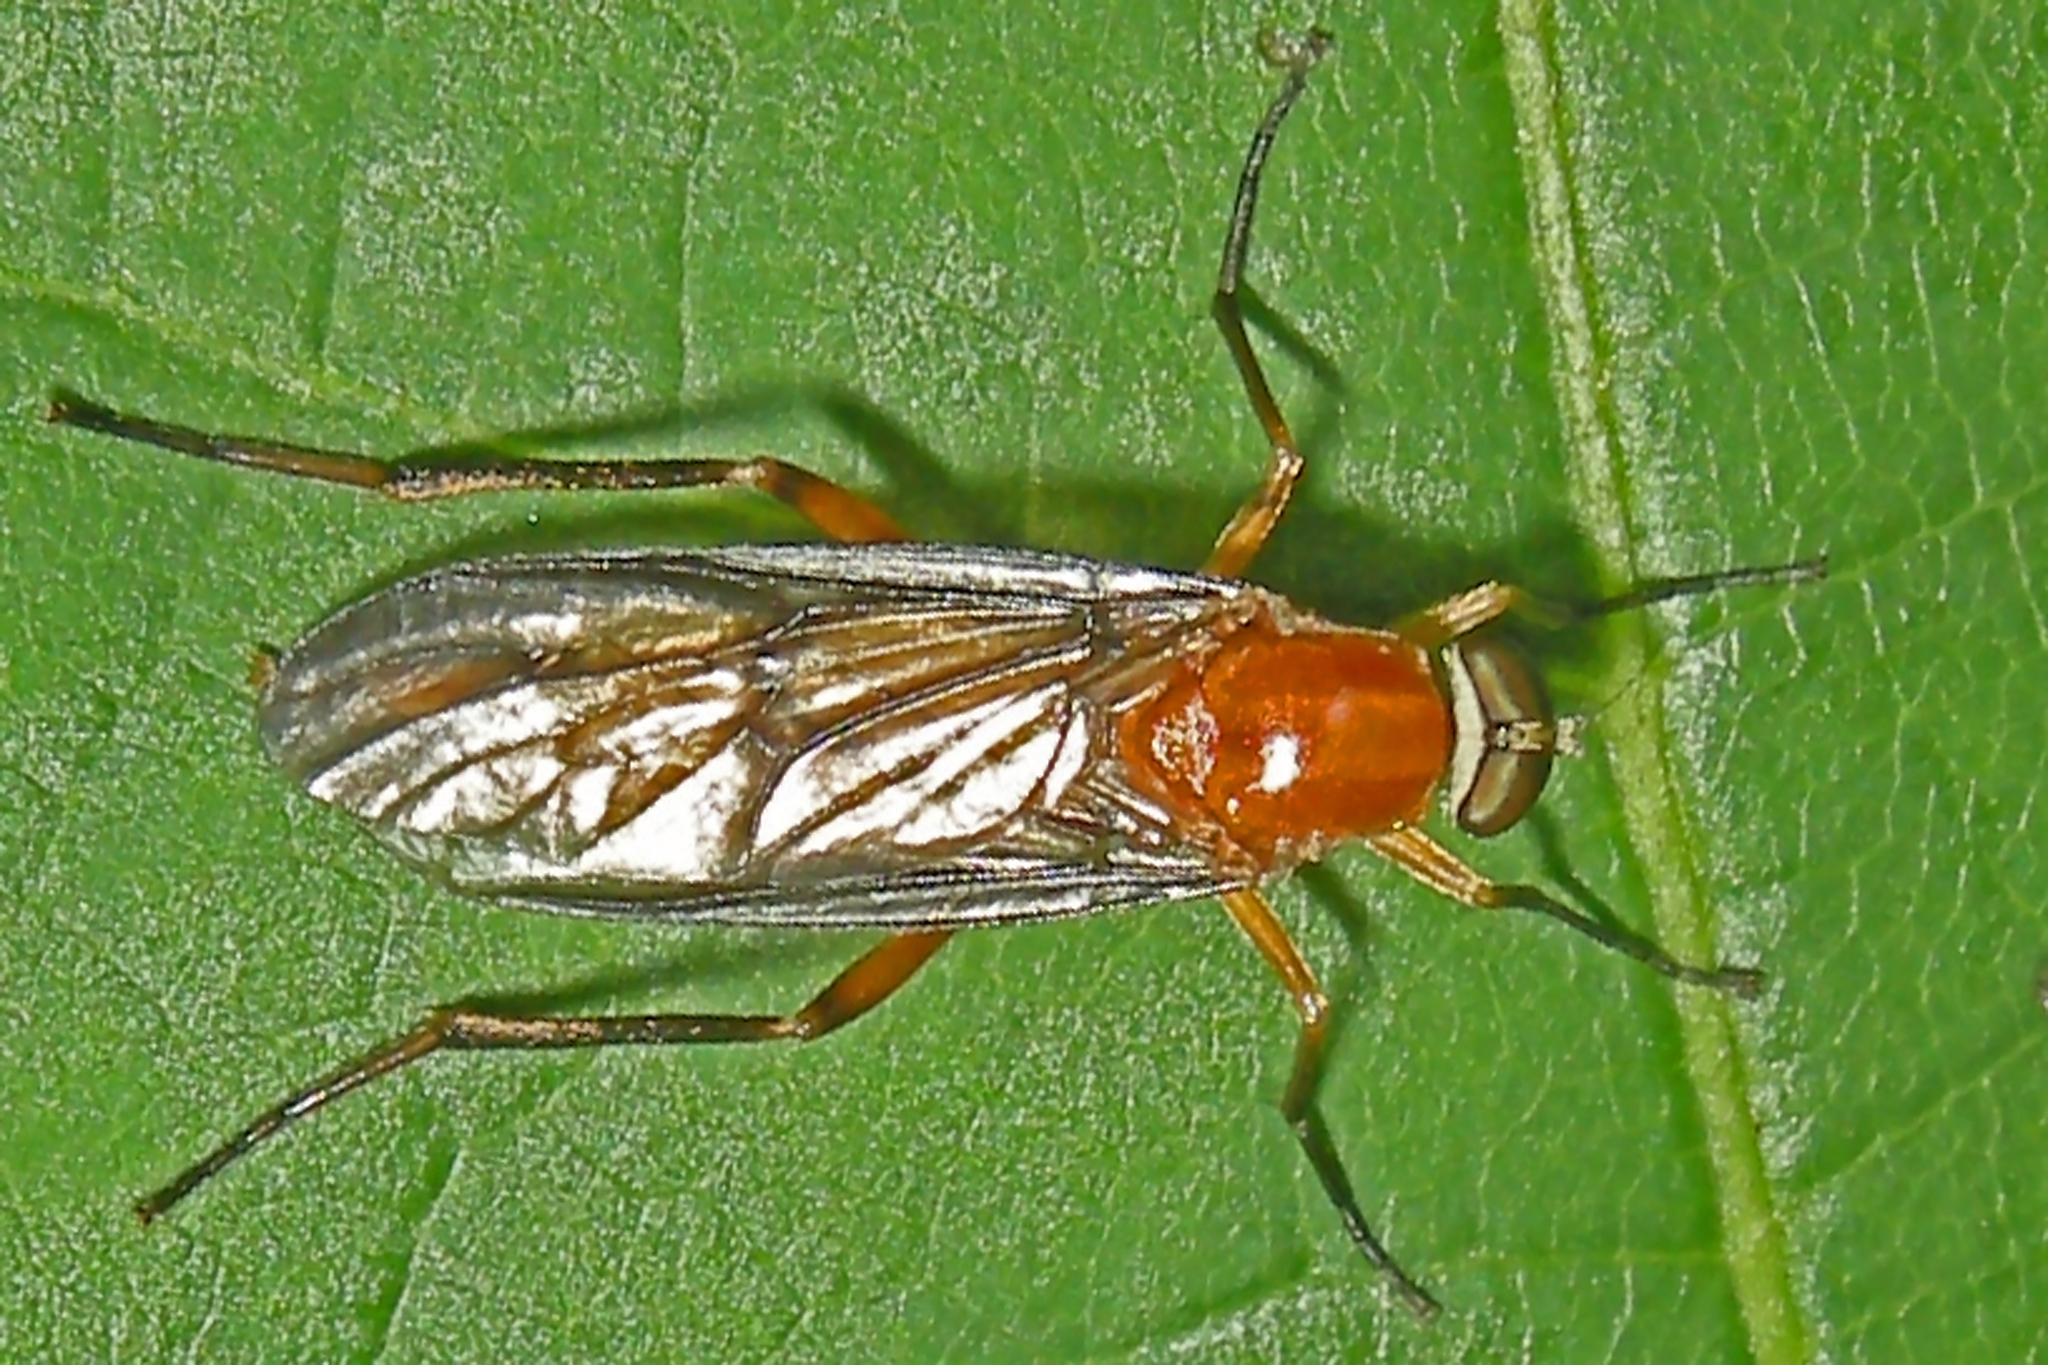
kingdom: Animalia
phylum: Arthropoda
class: Insecta
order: Diptera
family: Xylophagidae
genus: Dialysis
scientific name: Dialysis rufithorax
